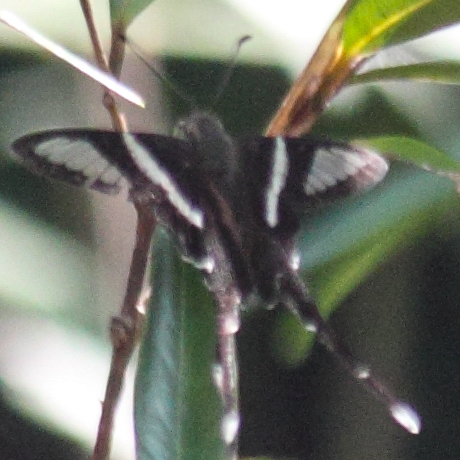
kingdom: Animalia
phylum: Arthropoda
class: Insecta
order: Lepidoptera
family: Papilionidae
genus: Lamproptera
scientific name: Lamproptera curius
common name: White dragontail
